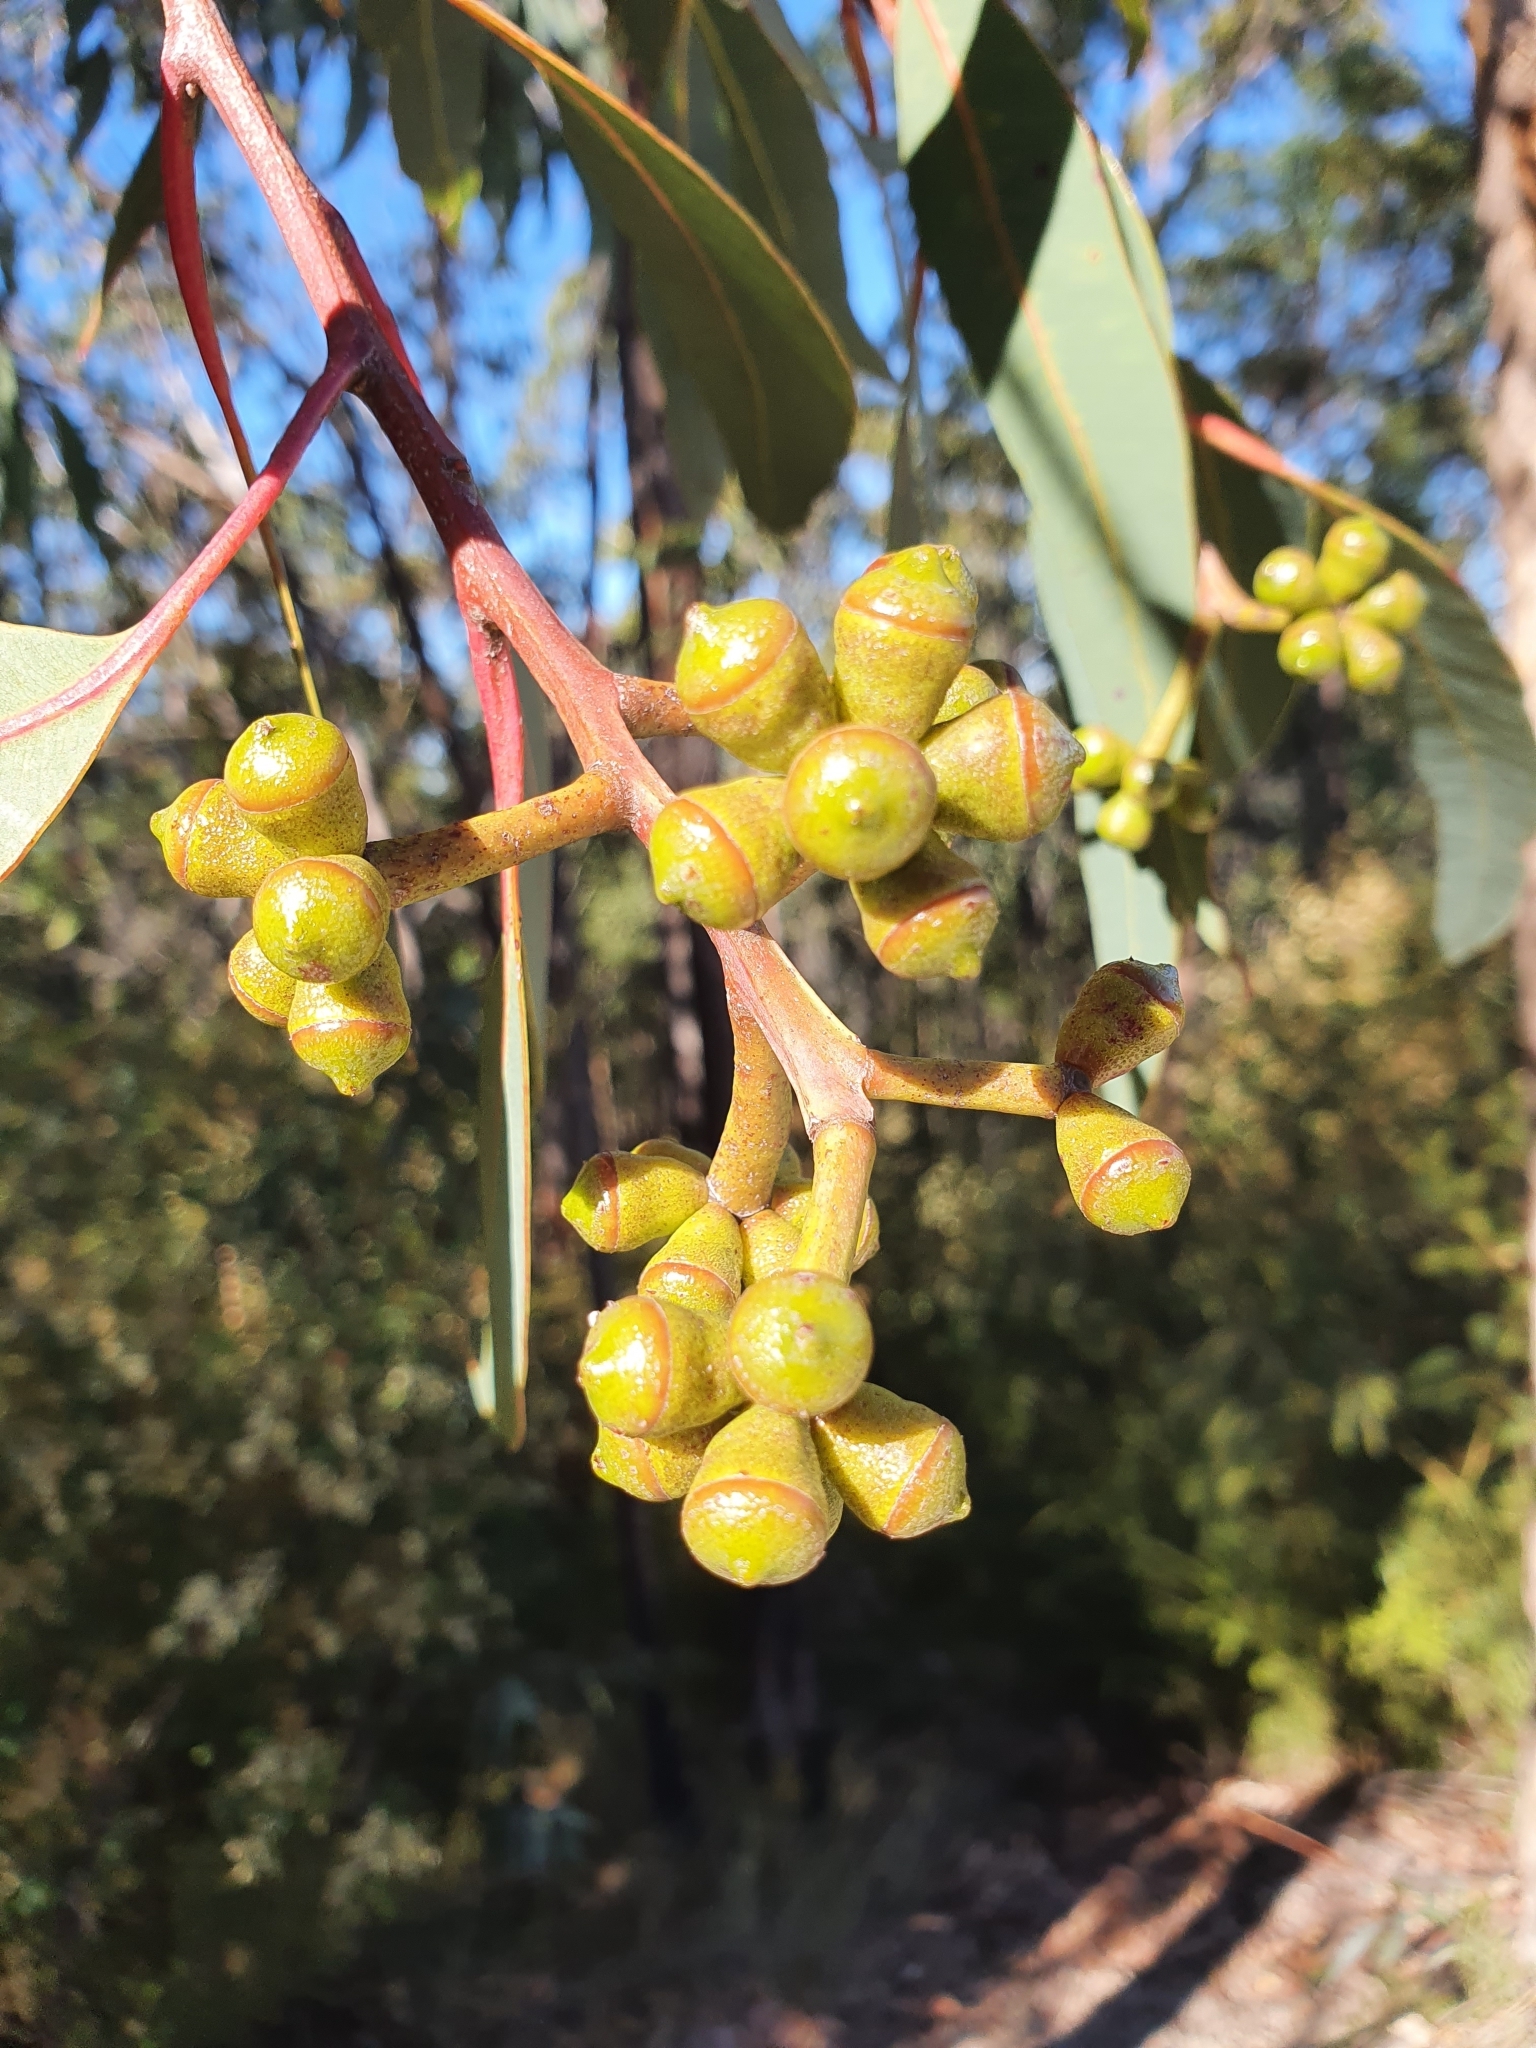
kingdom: Plantae
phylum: Tracheophyta
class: Magnoliopsida
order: Myrtales
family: Myrtaceae
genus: Corymbia
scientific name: Corymbia eximia
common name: Yellow bloodwood
